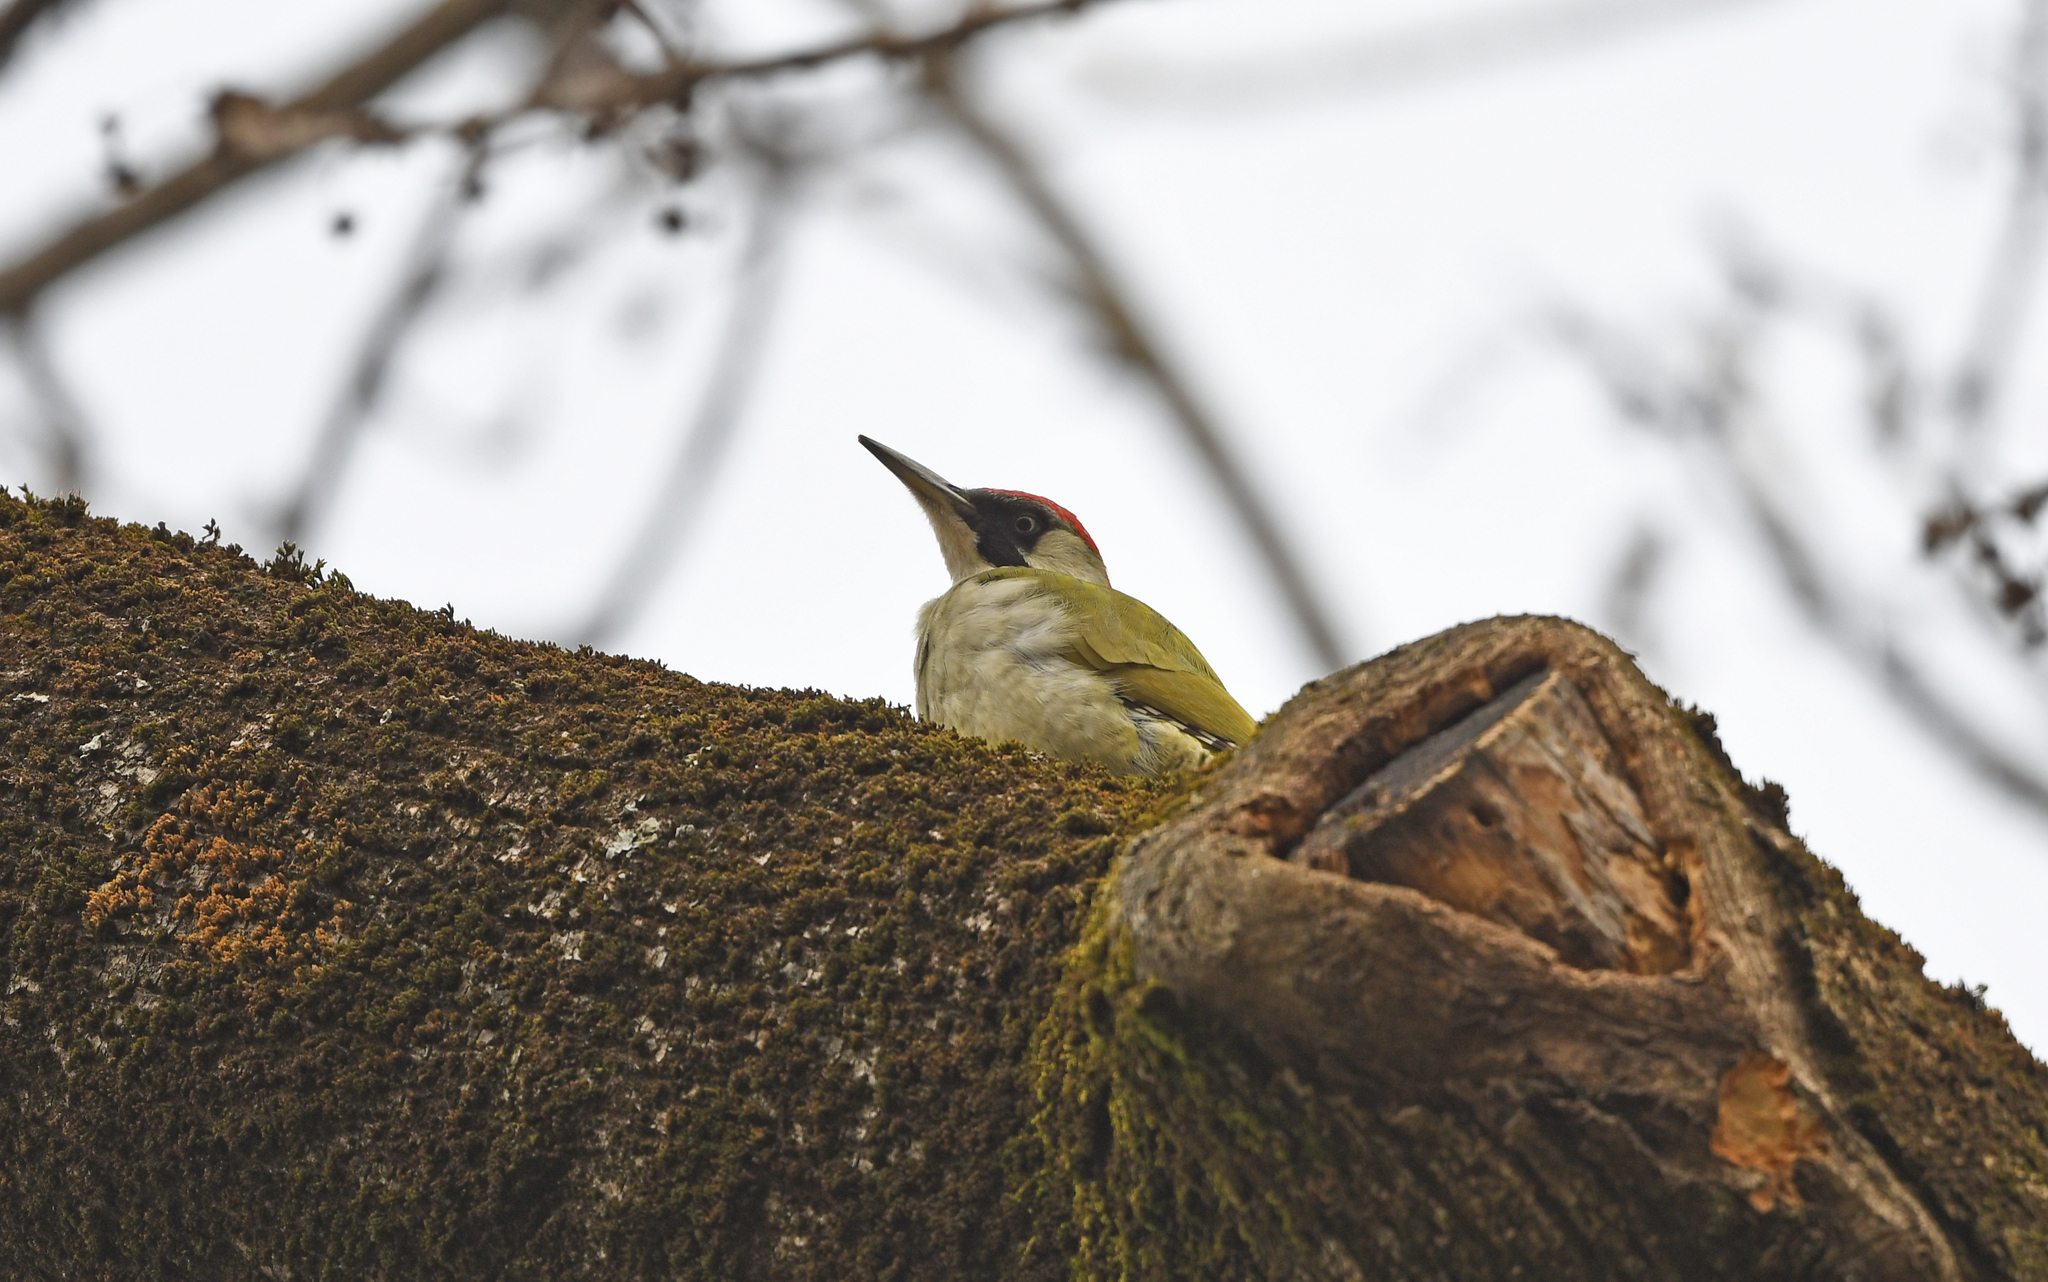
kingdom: Animalia
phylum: Chordata
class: Aves
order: Piciformes
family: Picidae
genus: Picus
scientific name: Picus viridis
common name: European green woodpecker
